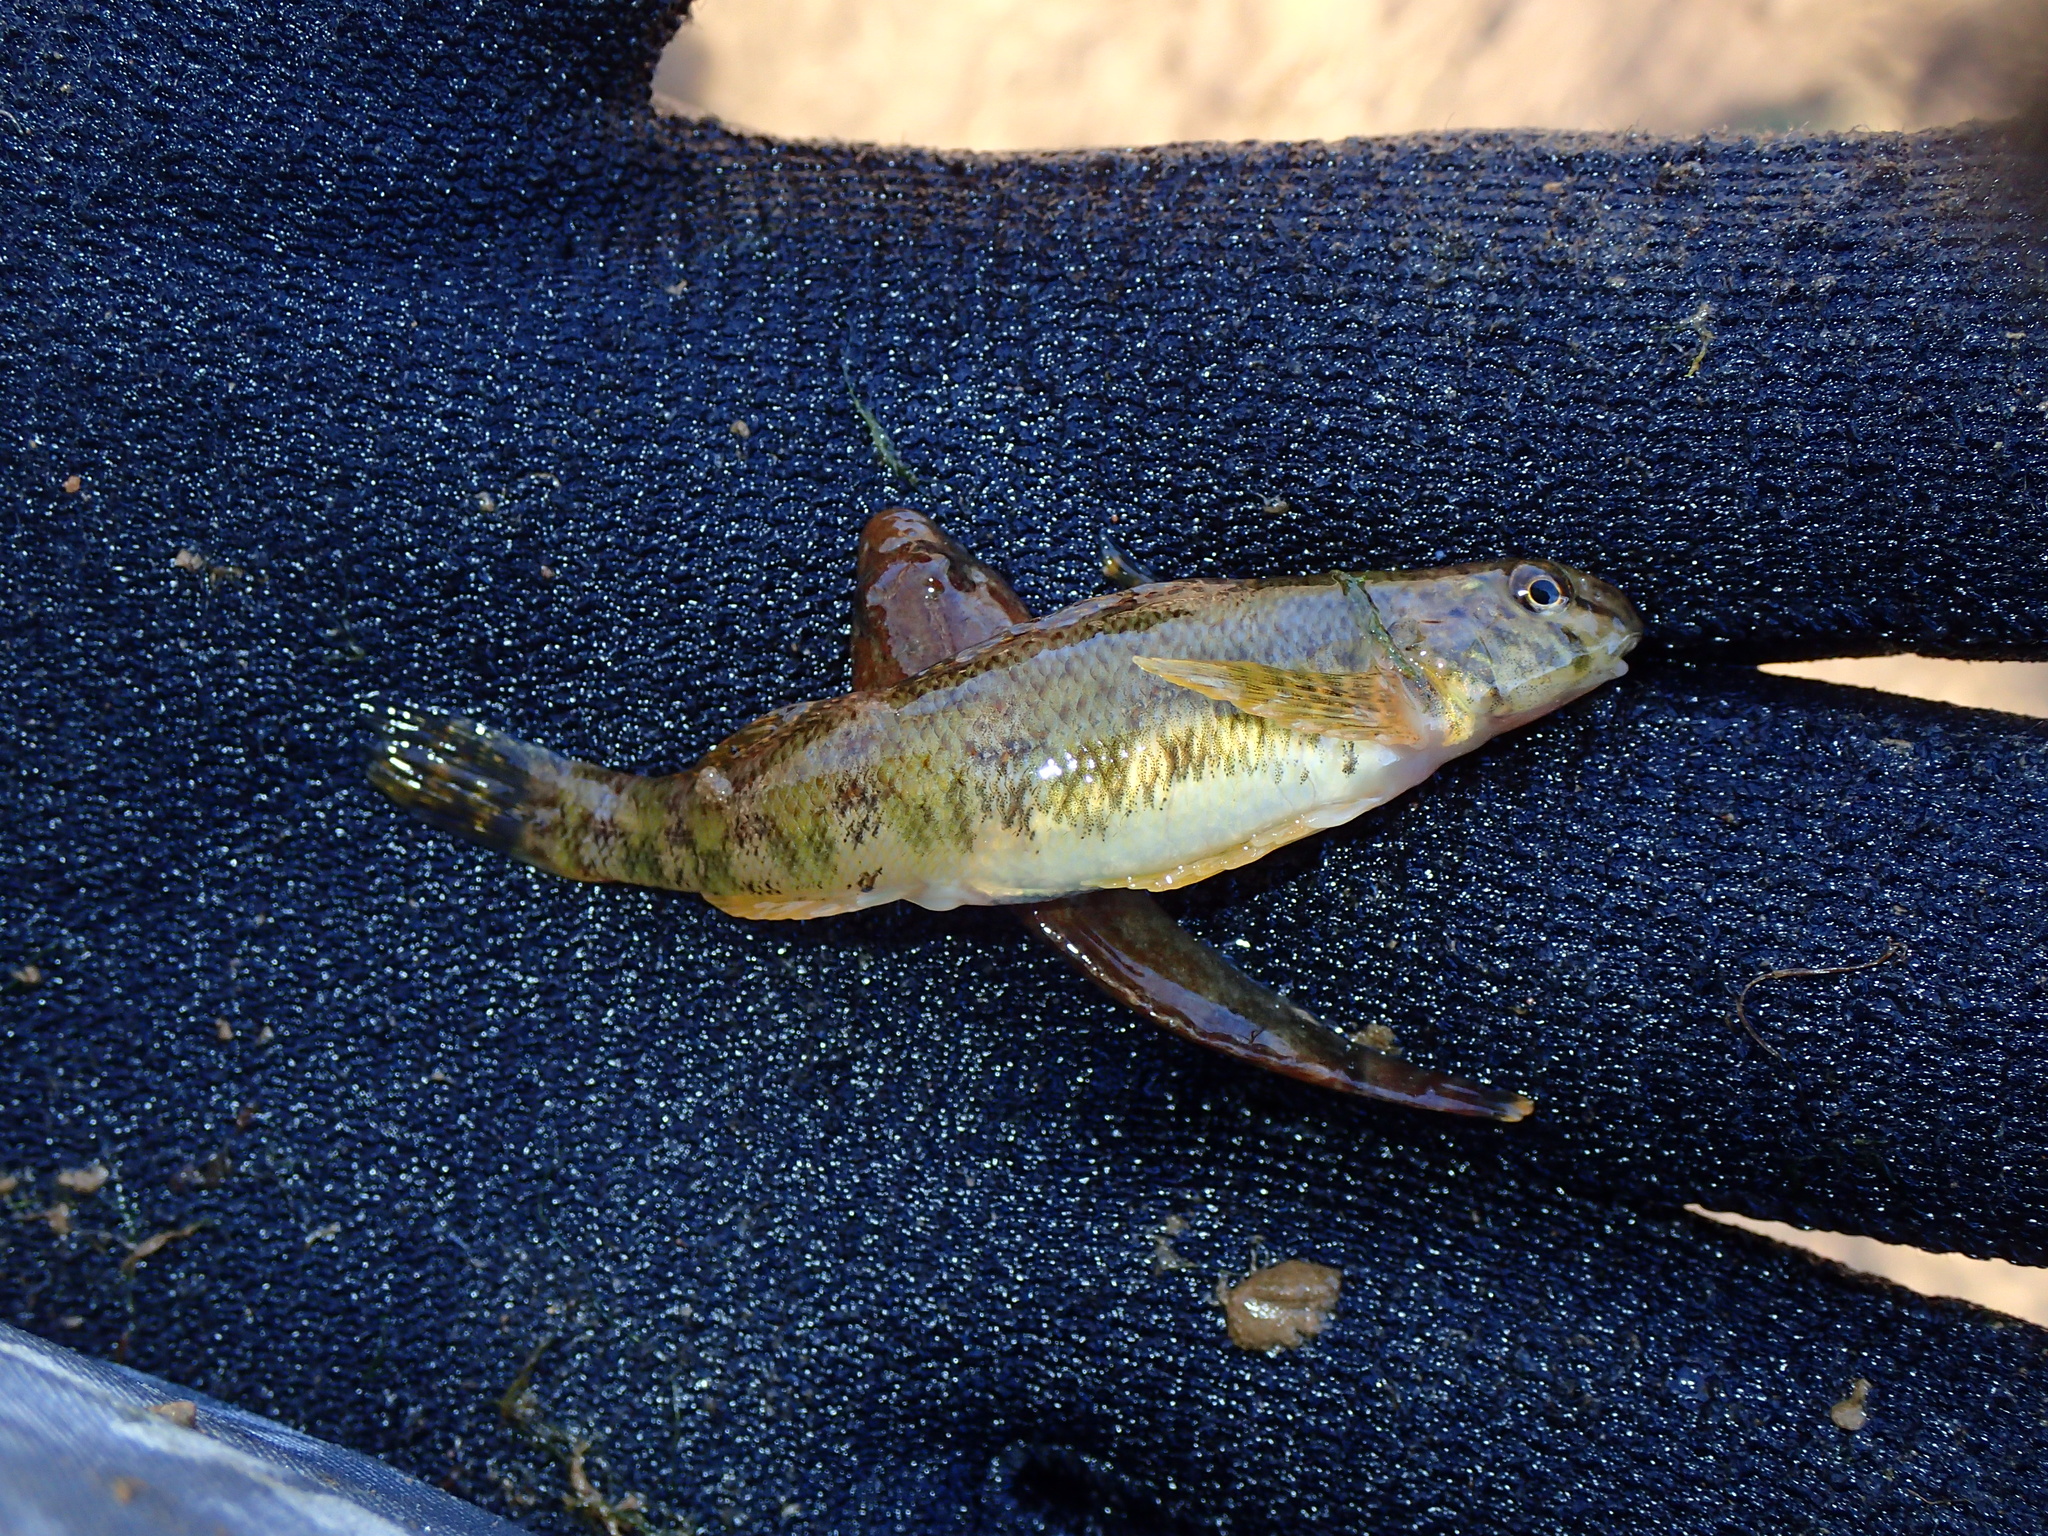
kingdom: Animalia
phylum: Chordata
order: Perciformes
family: Percidae
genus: Etheostoma
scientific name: Etheostoma blennioides
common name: Greenside darter
